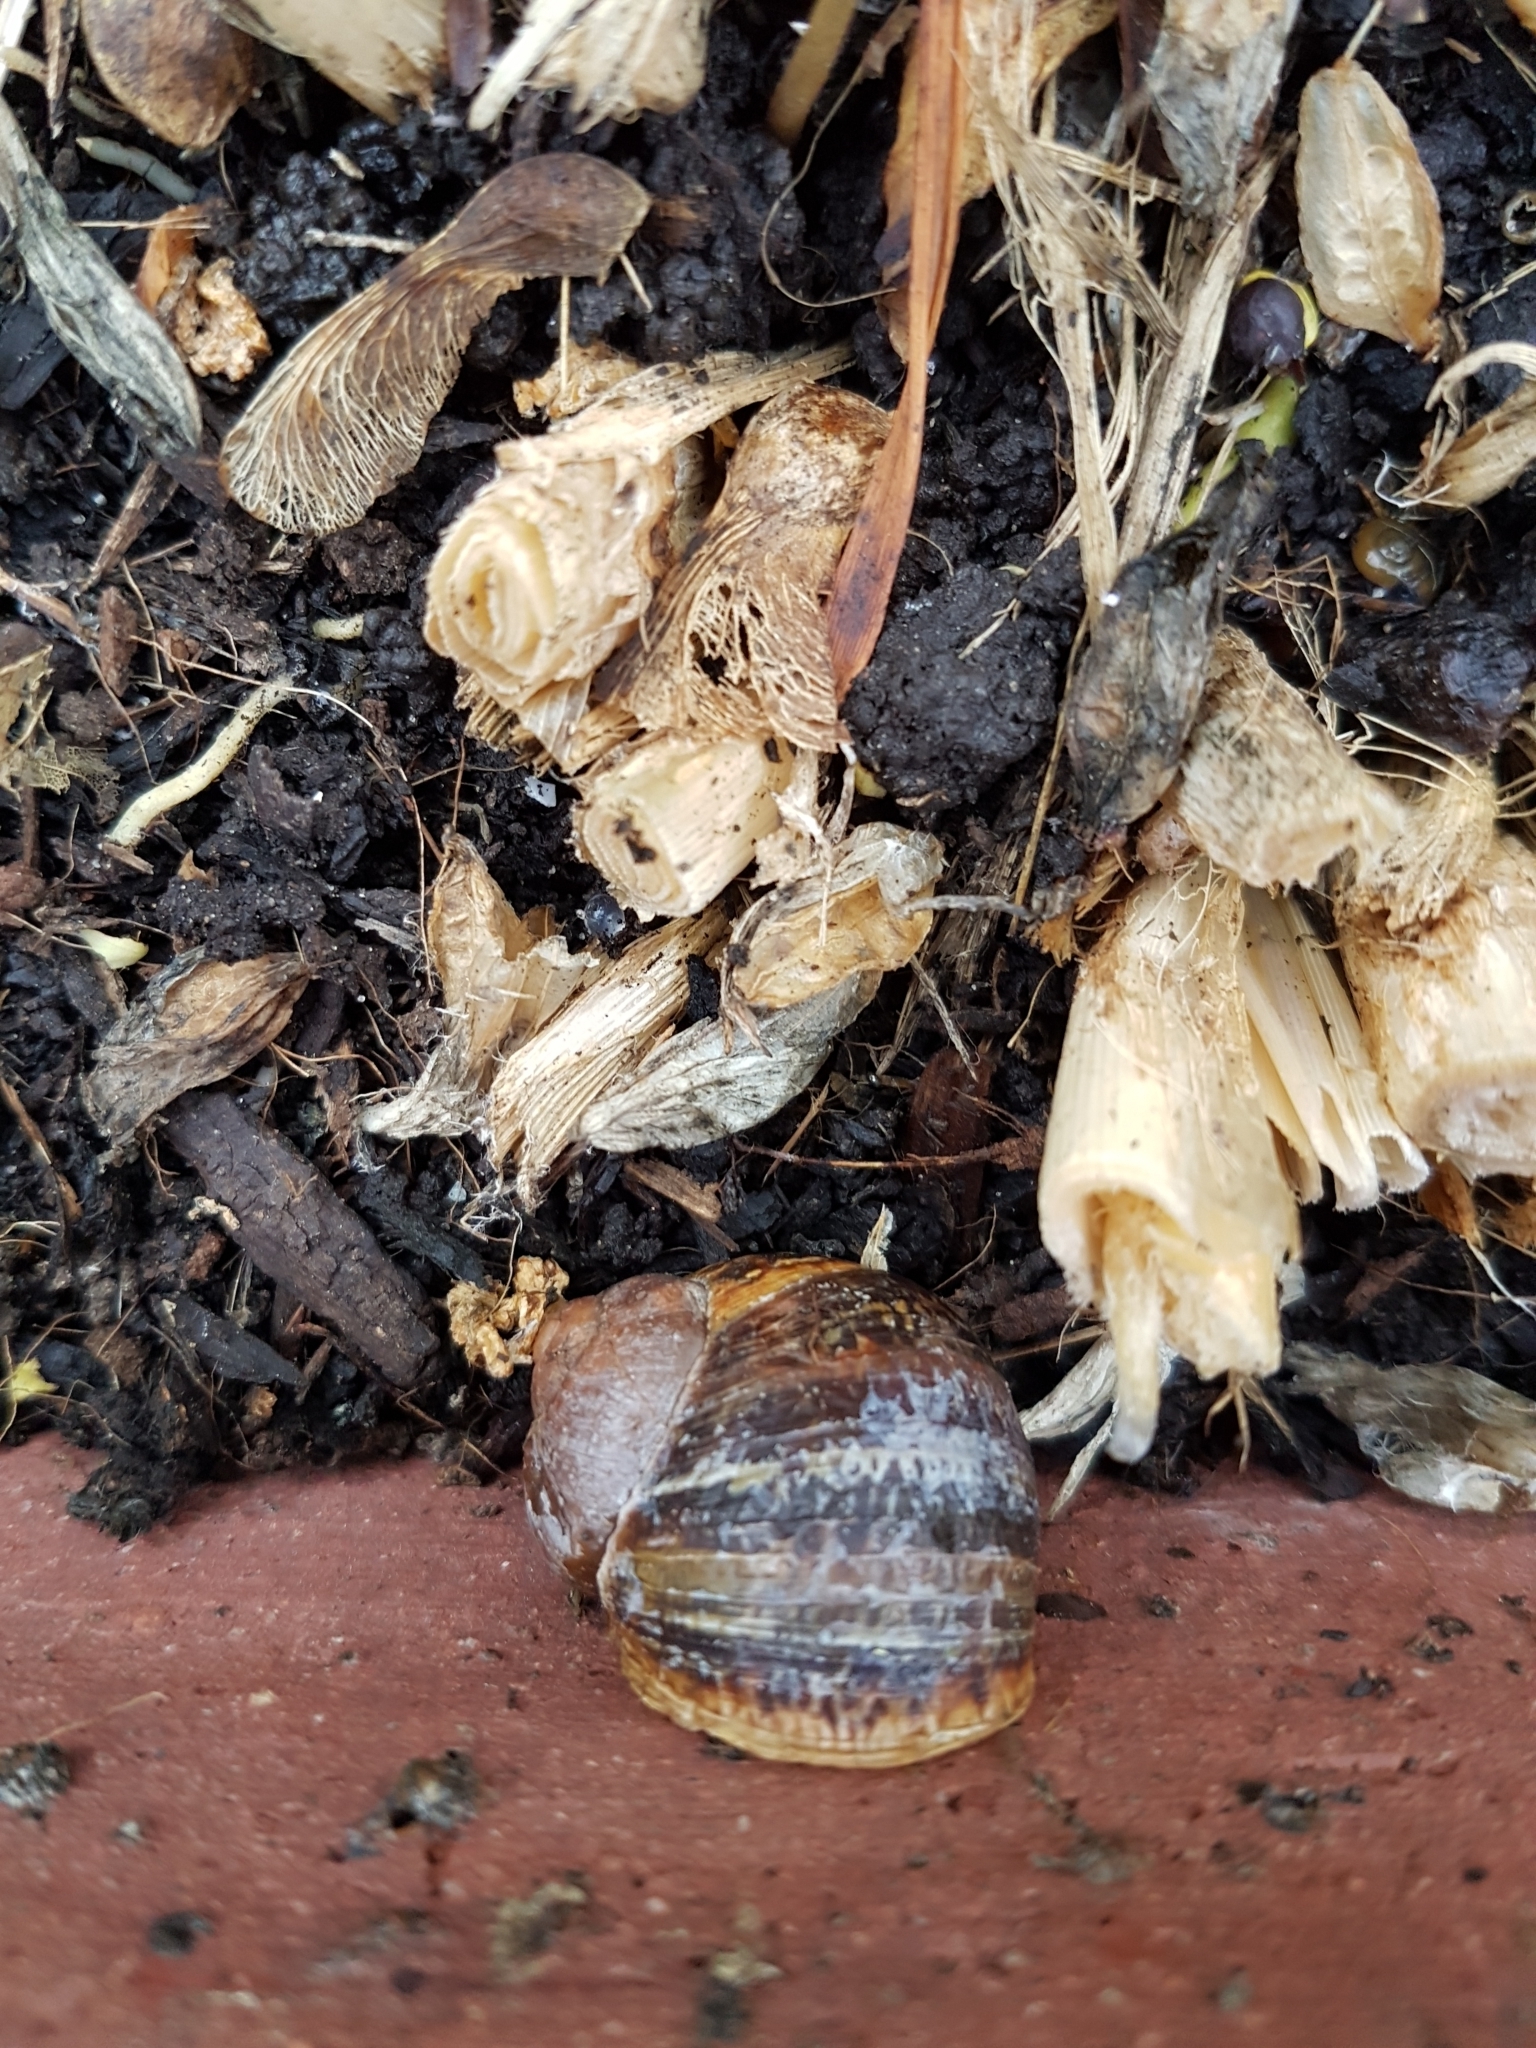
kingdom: Animalia
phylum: Mollusca
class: Gastropoda
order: Stylommatophora
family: Helicidae
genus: Cornu
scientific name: Cornu aspersum
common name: Brown garden snail
